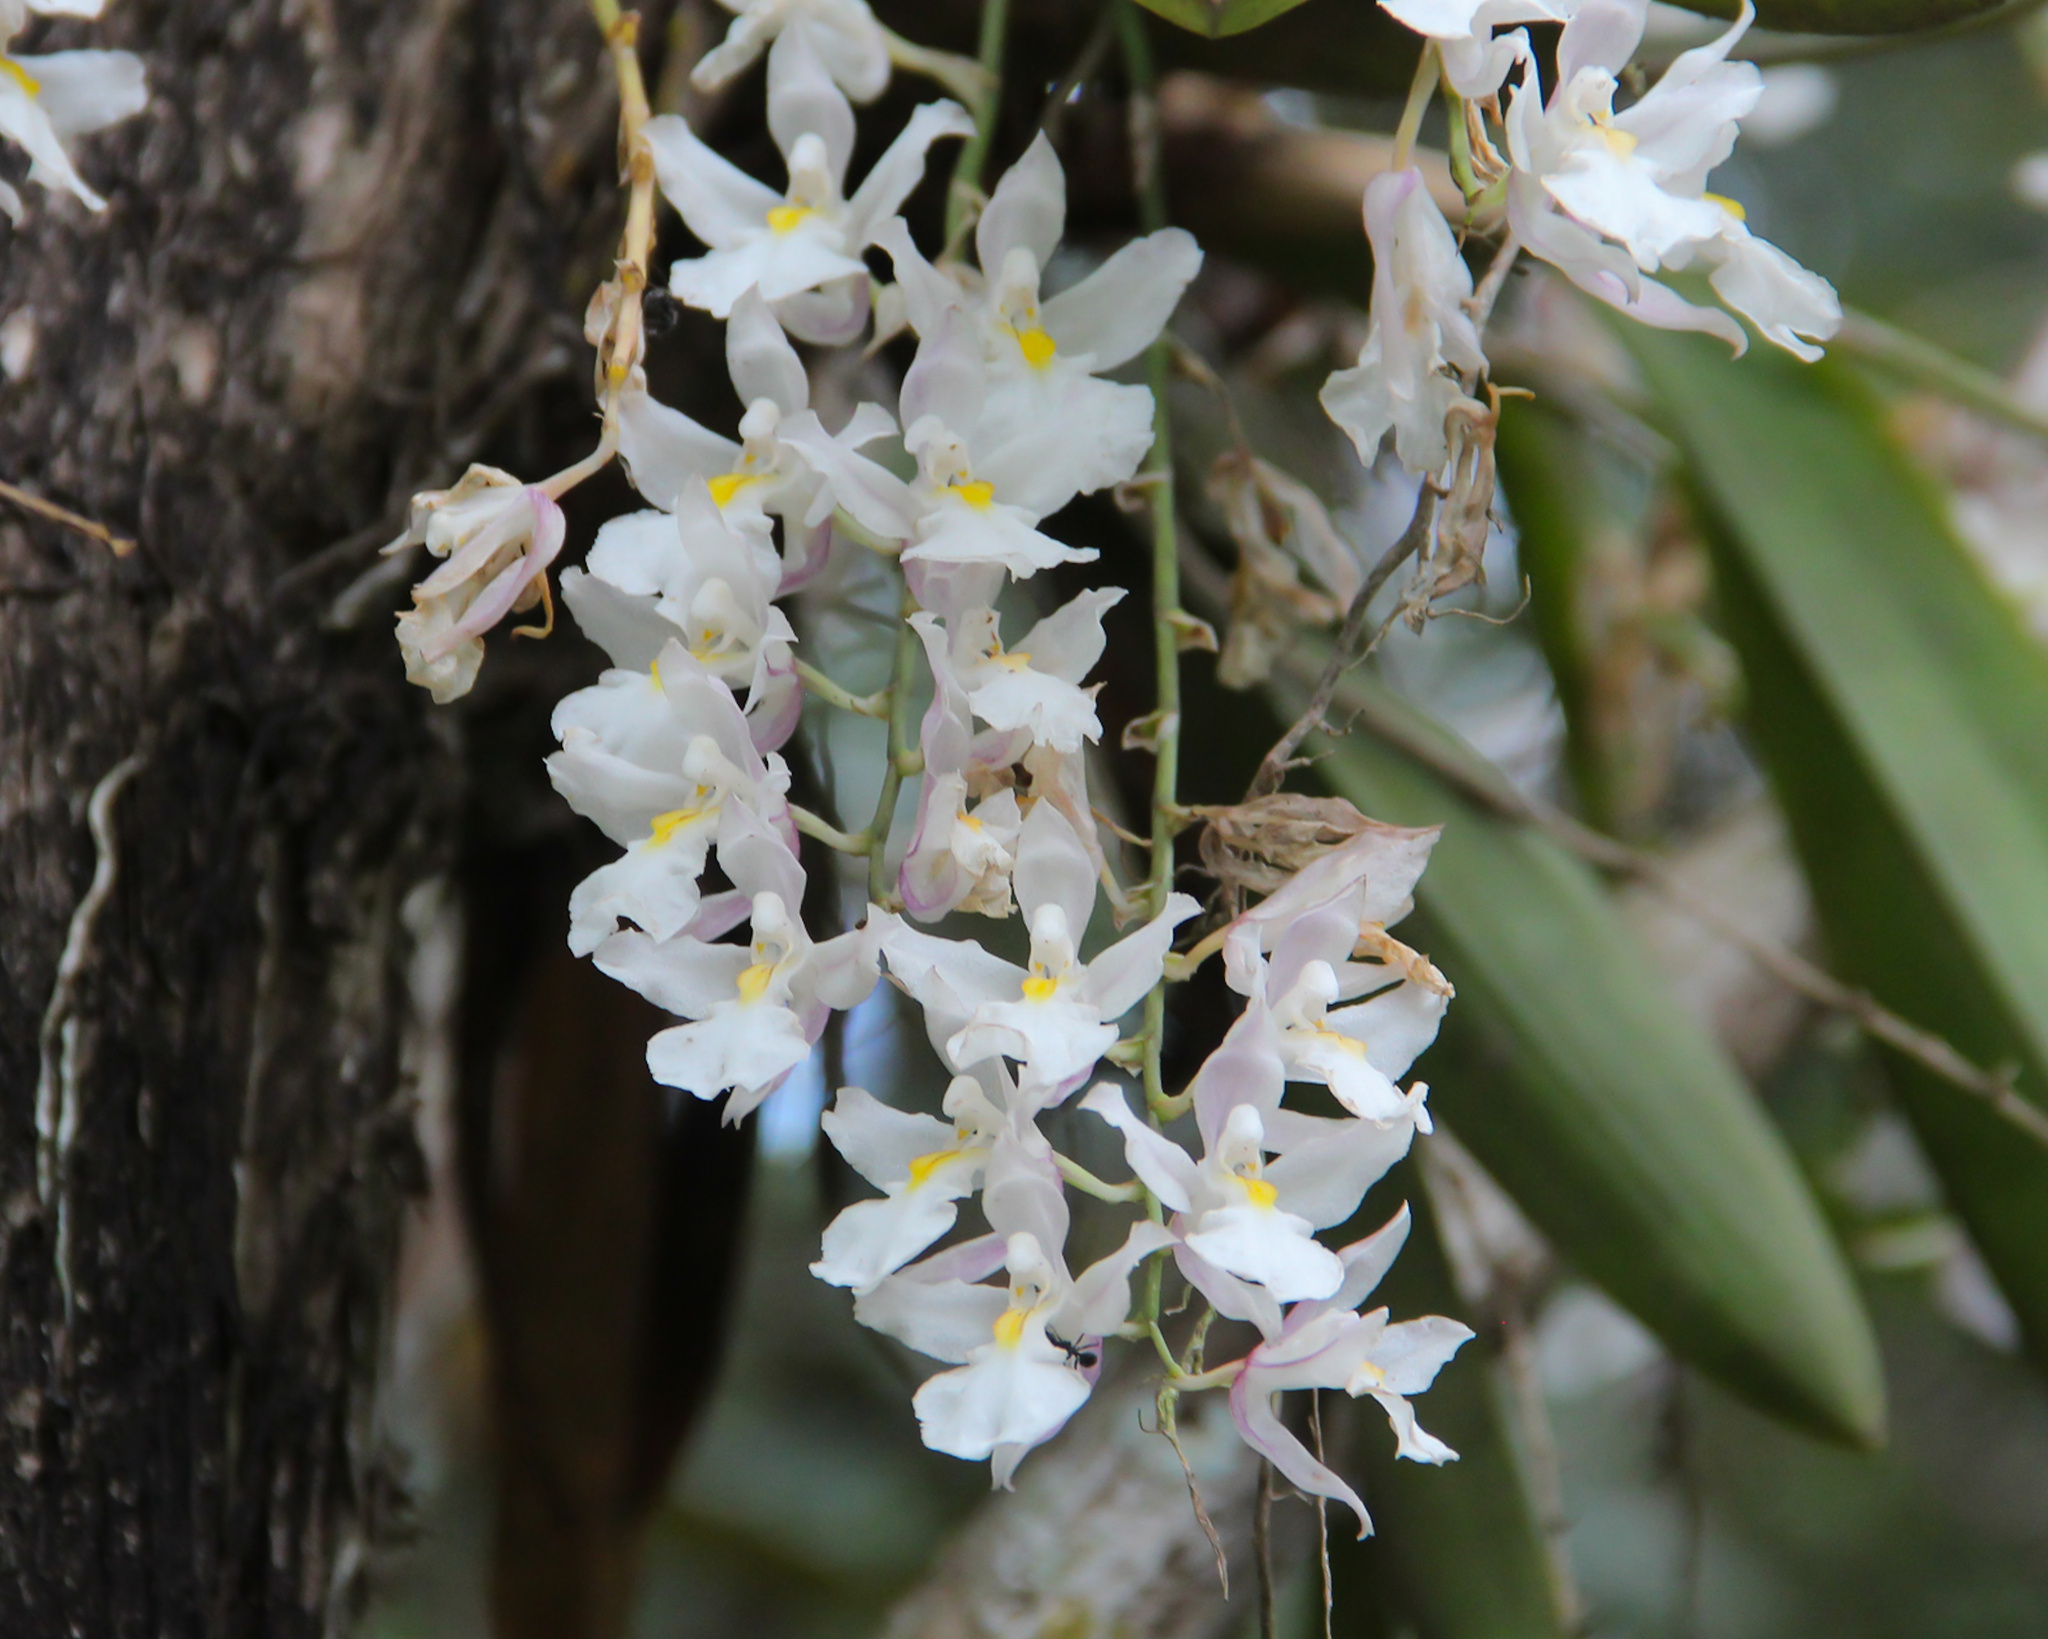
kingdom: Plantae
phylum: Tracheophyta
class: Liliopsida
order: Asparagales
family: Orchidaceae
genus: Rodriguezia
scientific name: Rodriguezia bracteata
